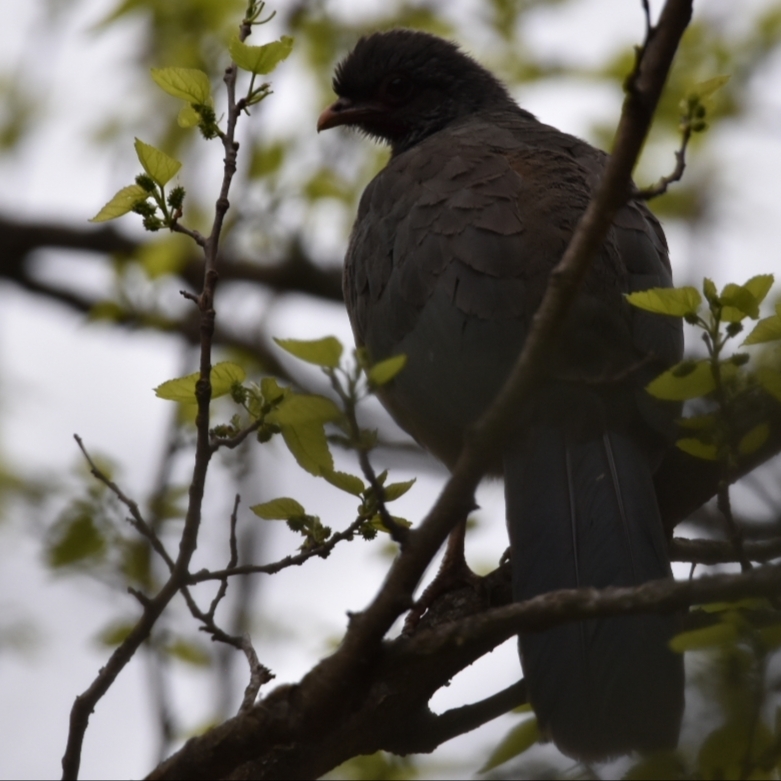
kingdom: Animalia
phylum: Chordata
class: Aves
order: Galliformes
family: Cracidae
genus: Ortalis
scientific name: Ortalis canicollis
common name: Chaco chachalaca
